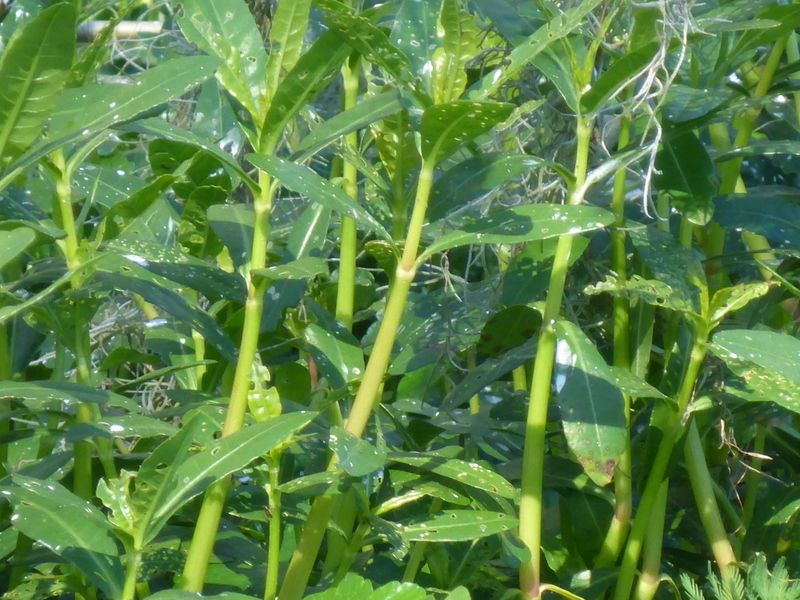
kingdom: Plantae
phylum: Tracheophyta
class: Magnoliopsida
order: Caryophyllales
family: Amaranthaceae
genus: Alternanthera
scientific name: Alternanthera philoxeroides
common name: Alligatorweed
